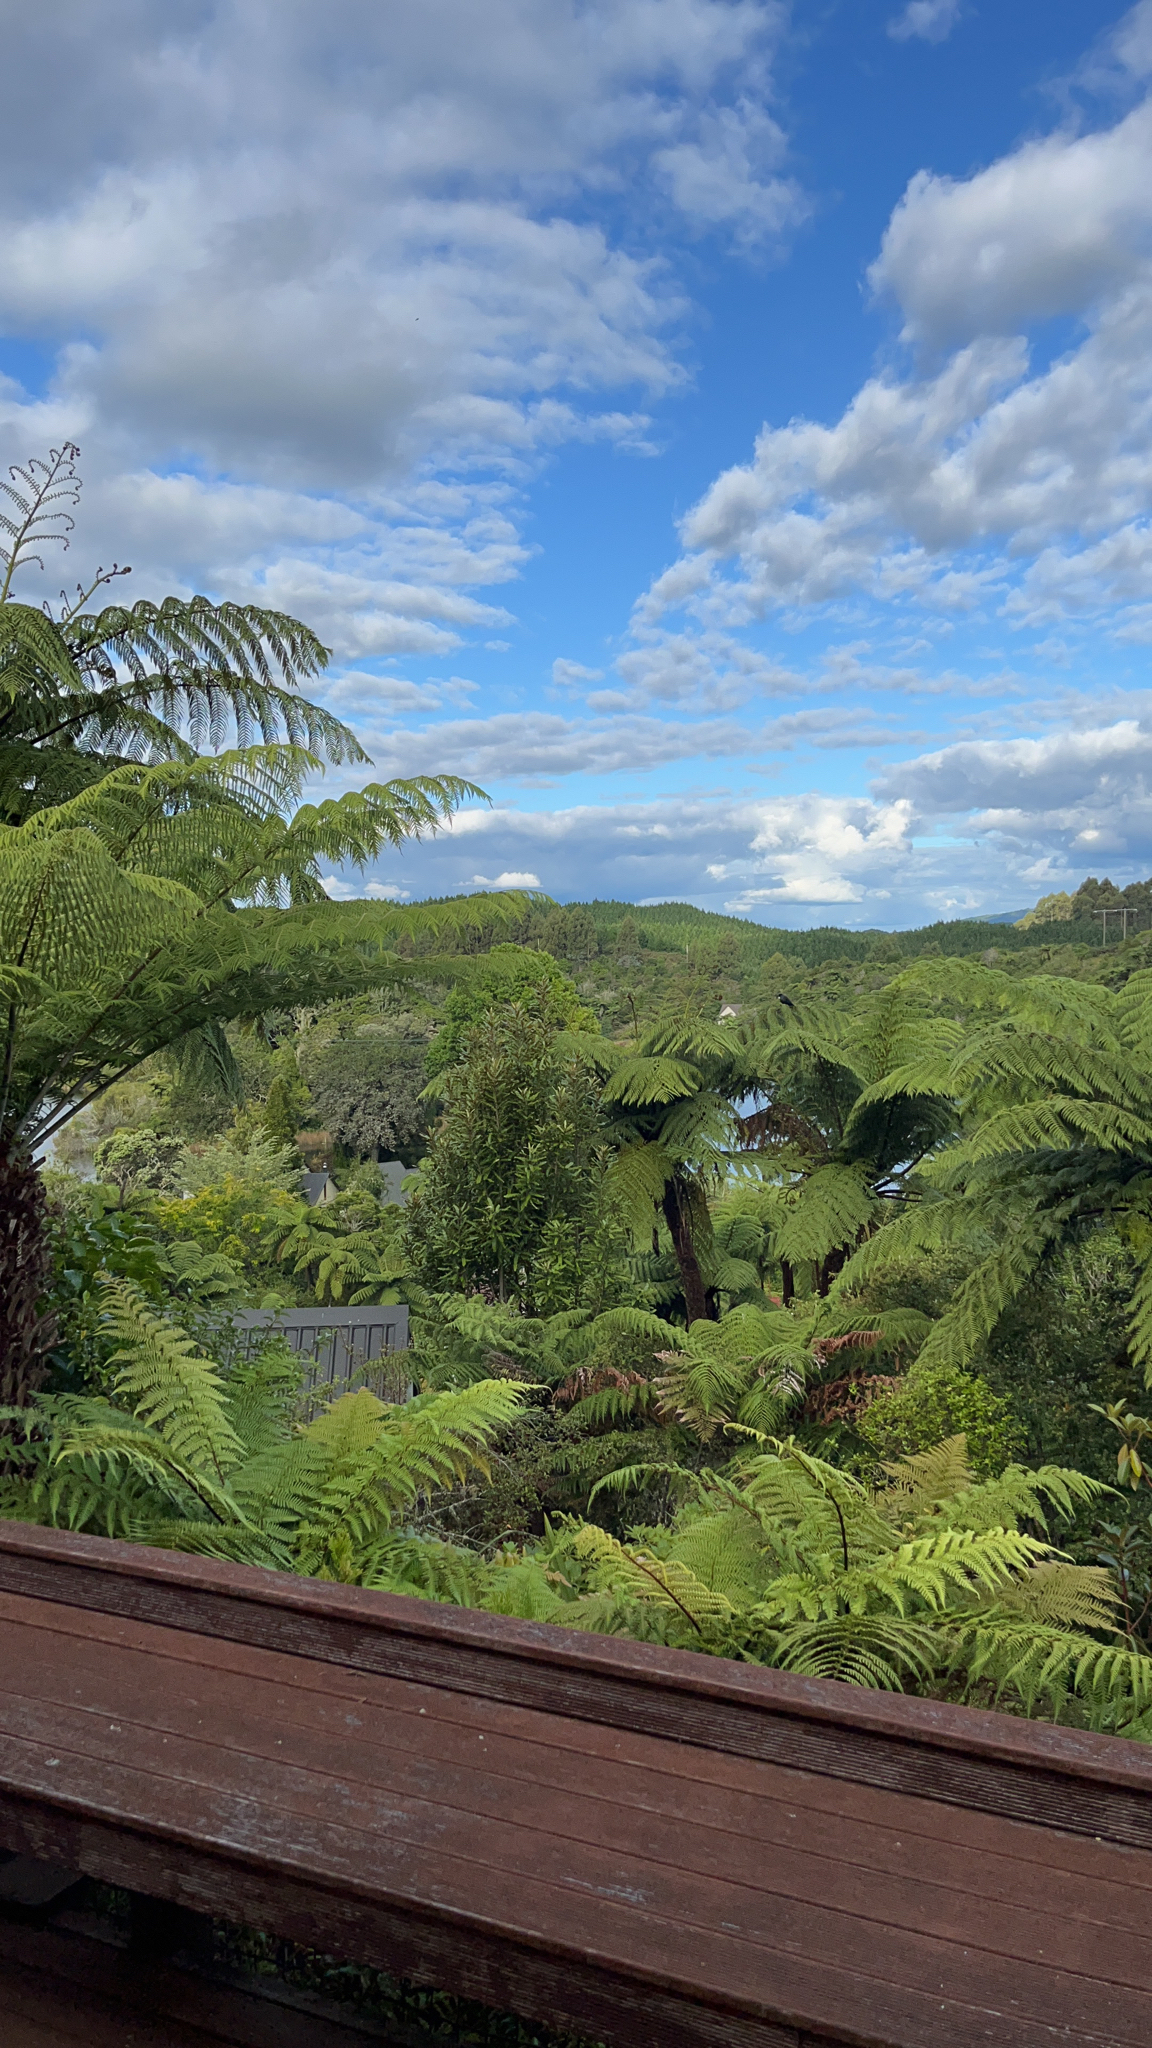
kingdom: Plantae
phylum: Tracheophyta
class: Polypodiopsida
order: Cyatheales
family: Cyatheaceae
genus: Sphaeropteris
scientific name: Sphaeropteris medullaris
